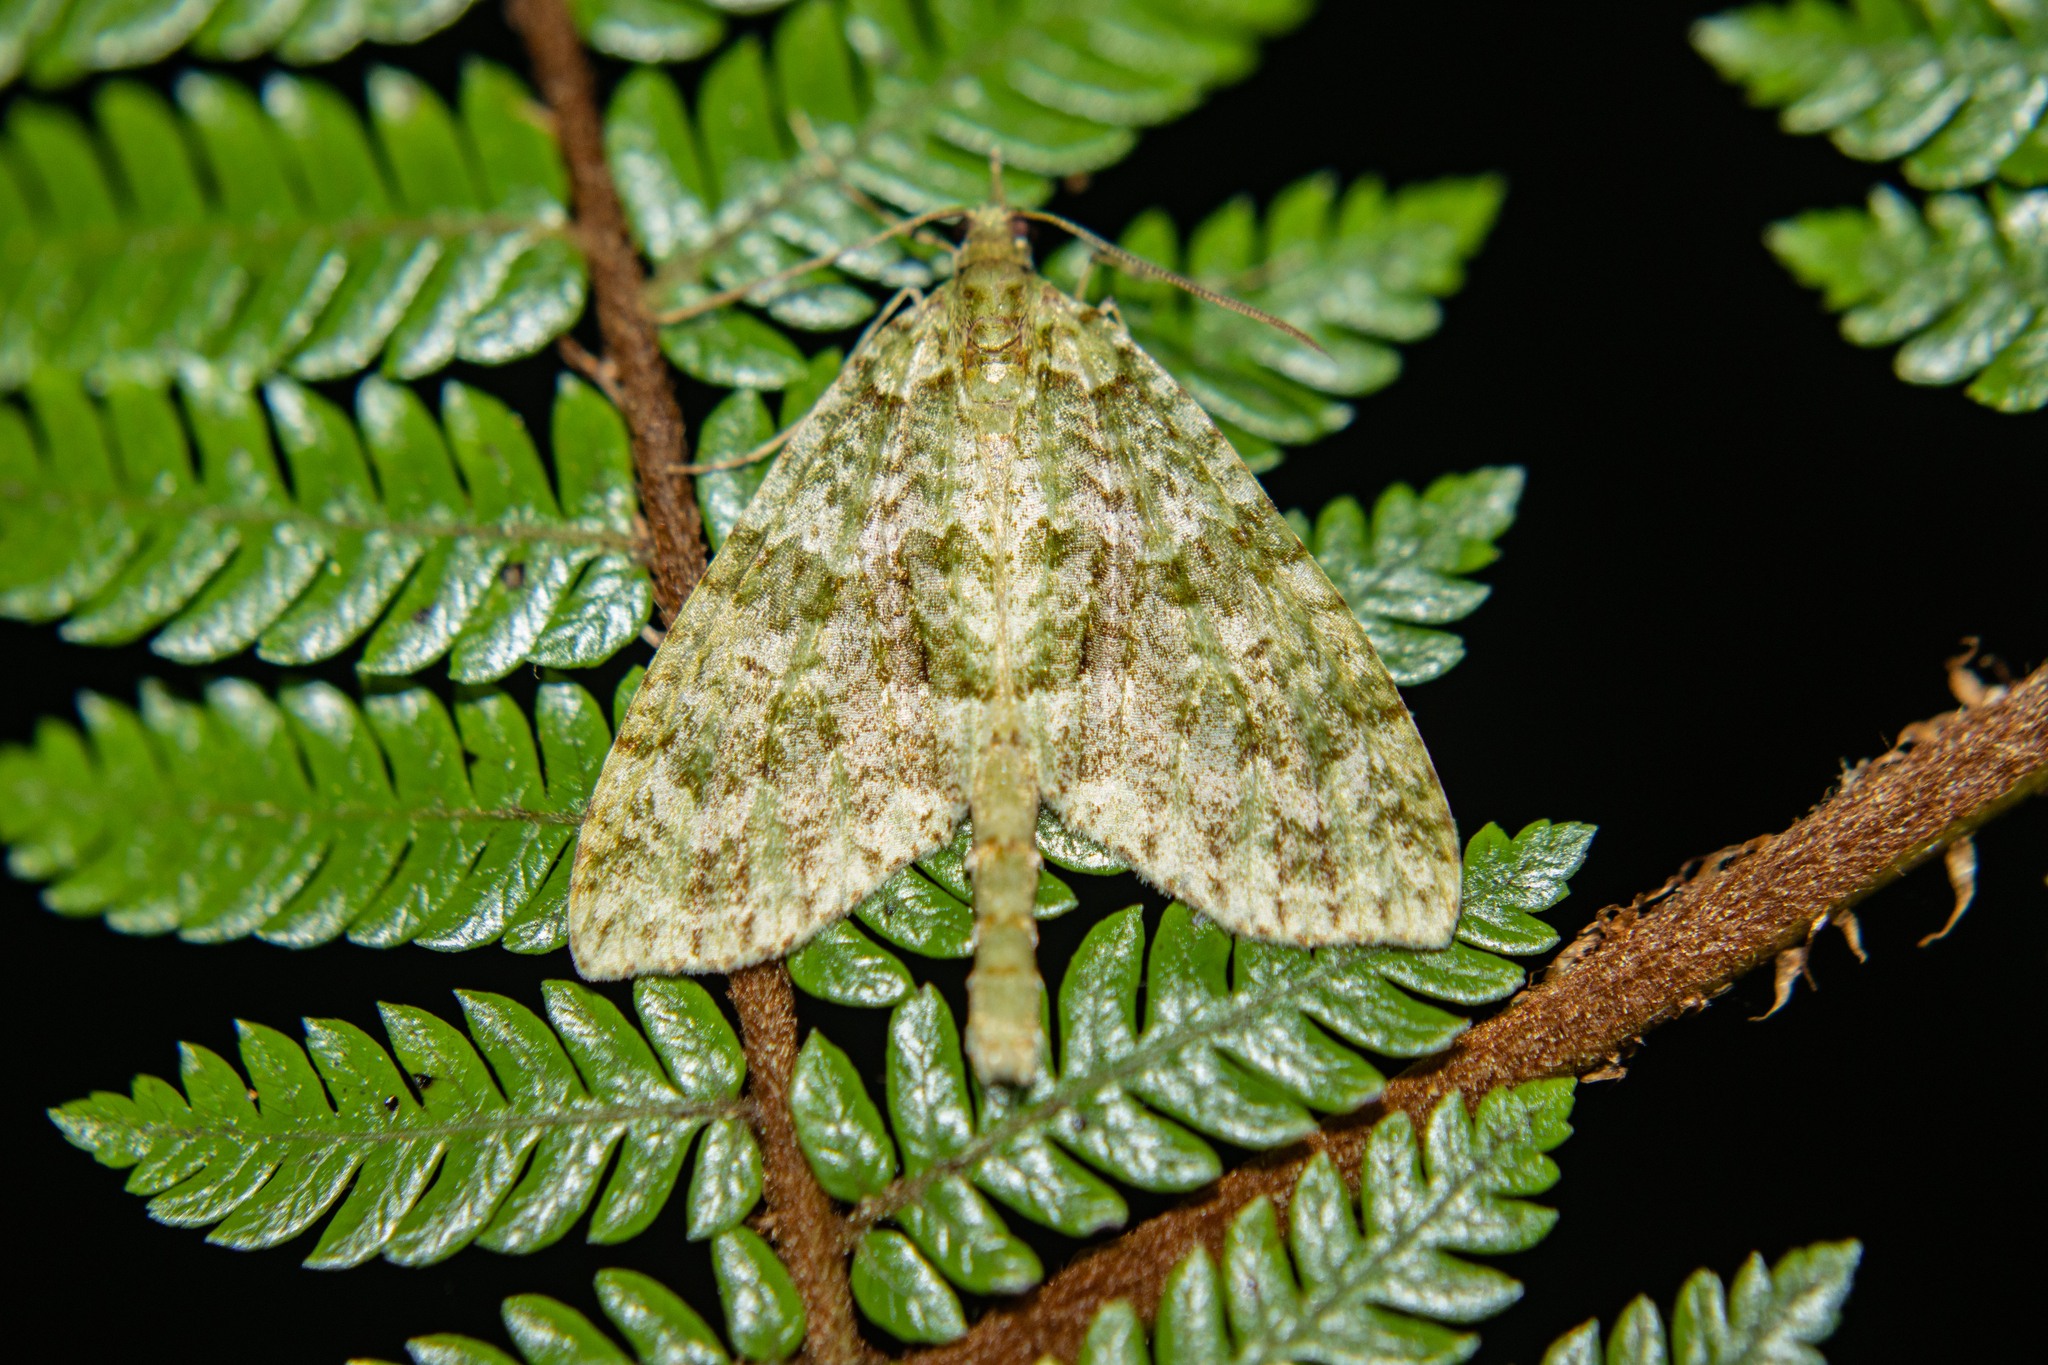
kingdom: Animalia
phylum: Arthropoda
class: Insecta
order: Lepidoptera
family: Geometridae
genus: Tatosoma
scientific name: Tatosoma tipulata
